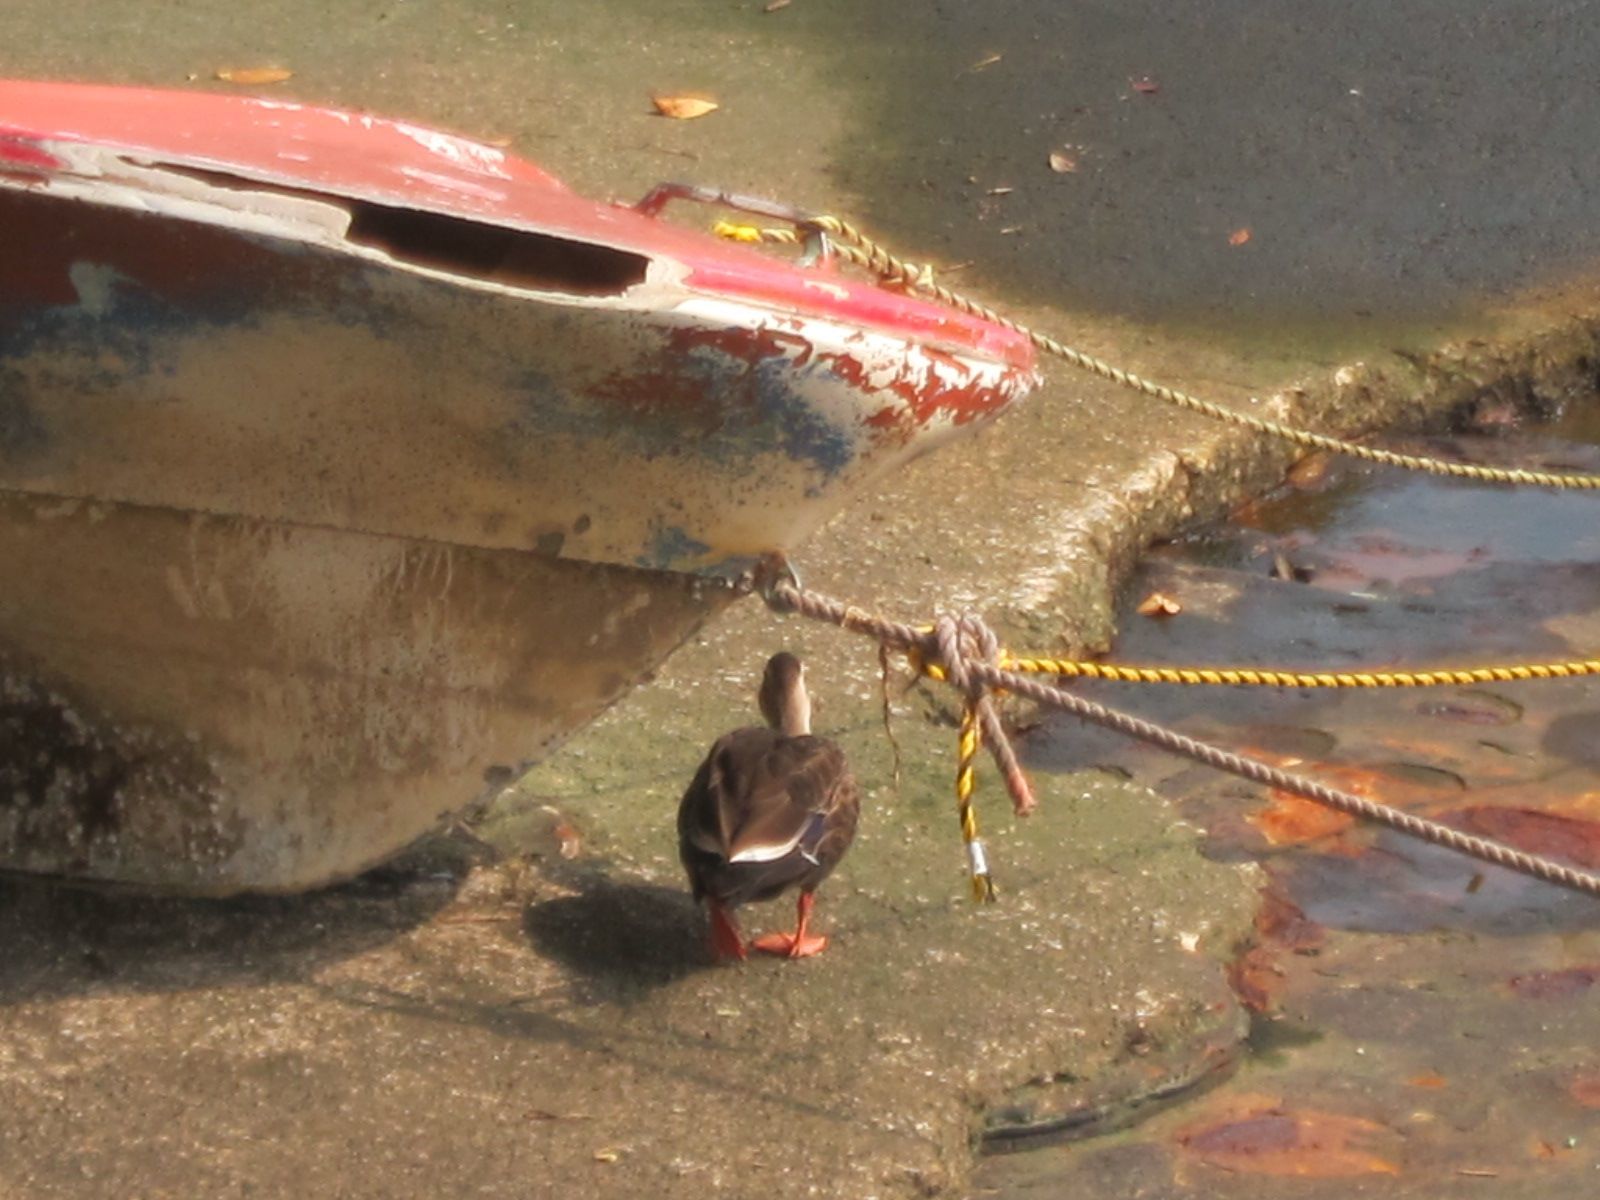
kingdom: Animalia
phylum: Chordata
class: Aves
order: Anseriformes
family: Anatidae
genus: Anas
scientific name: Anas zonorhyncha
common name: Eastern spot-billed duck
